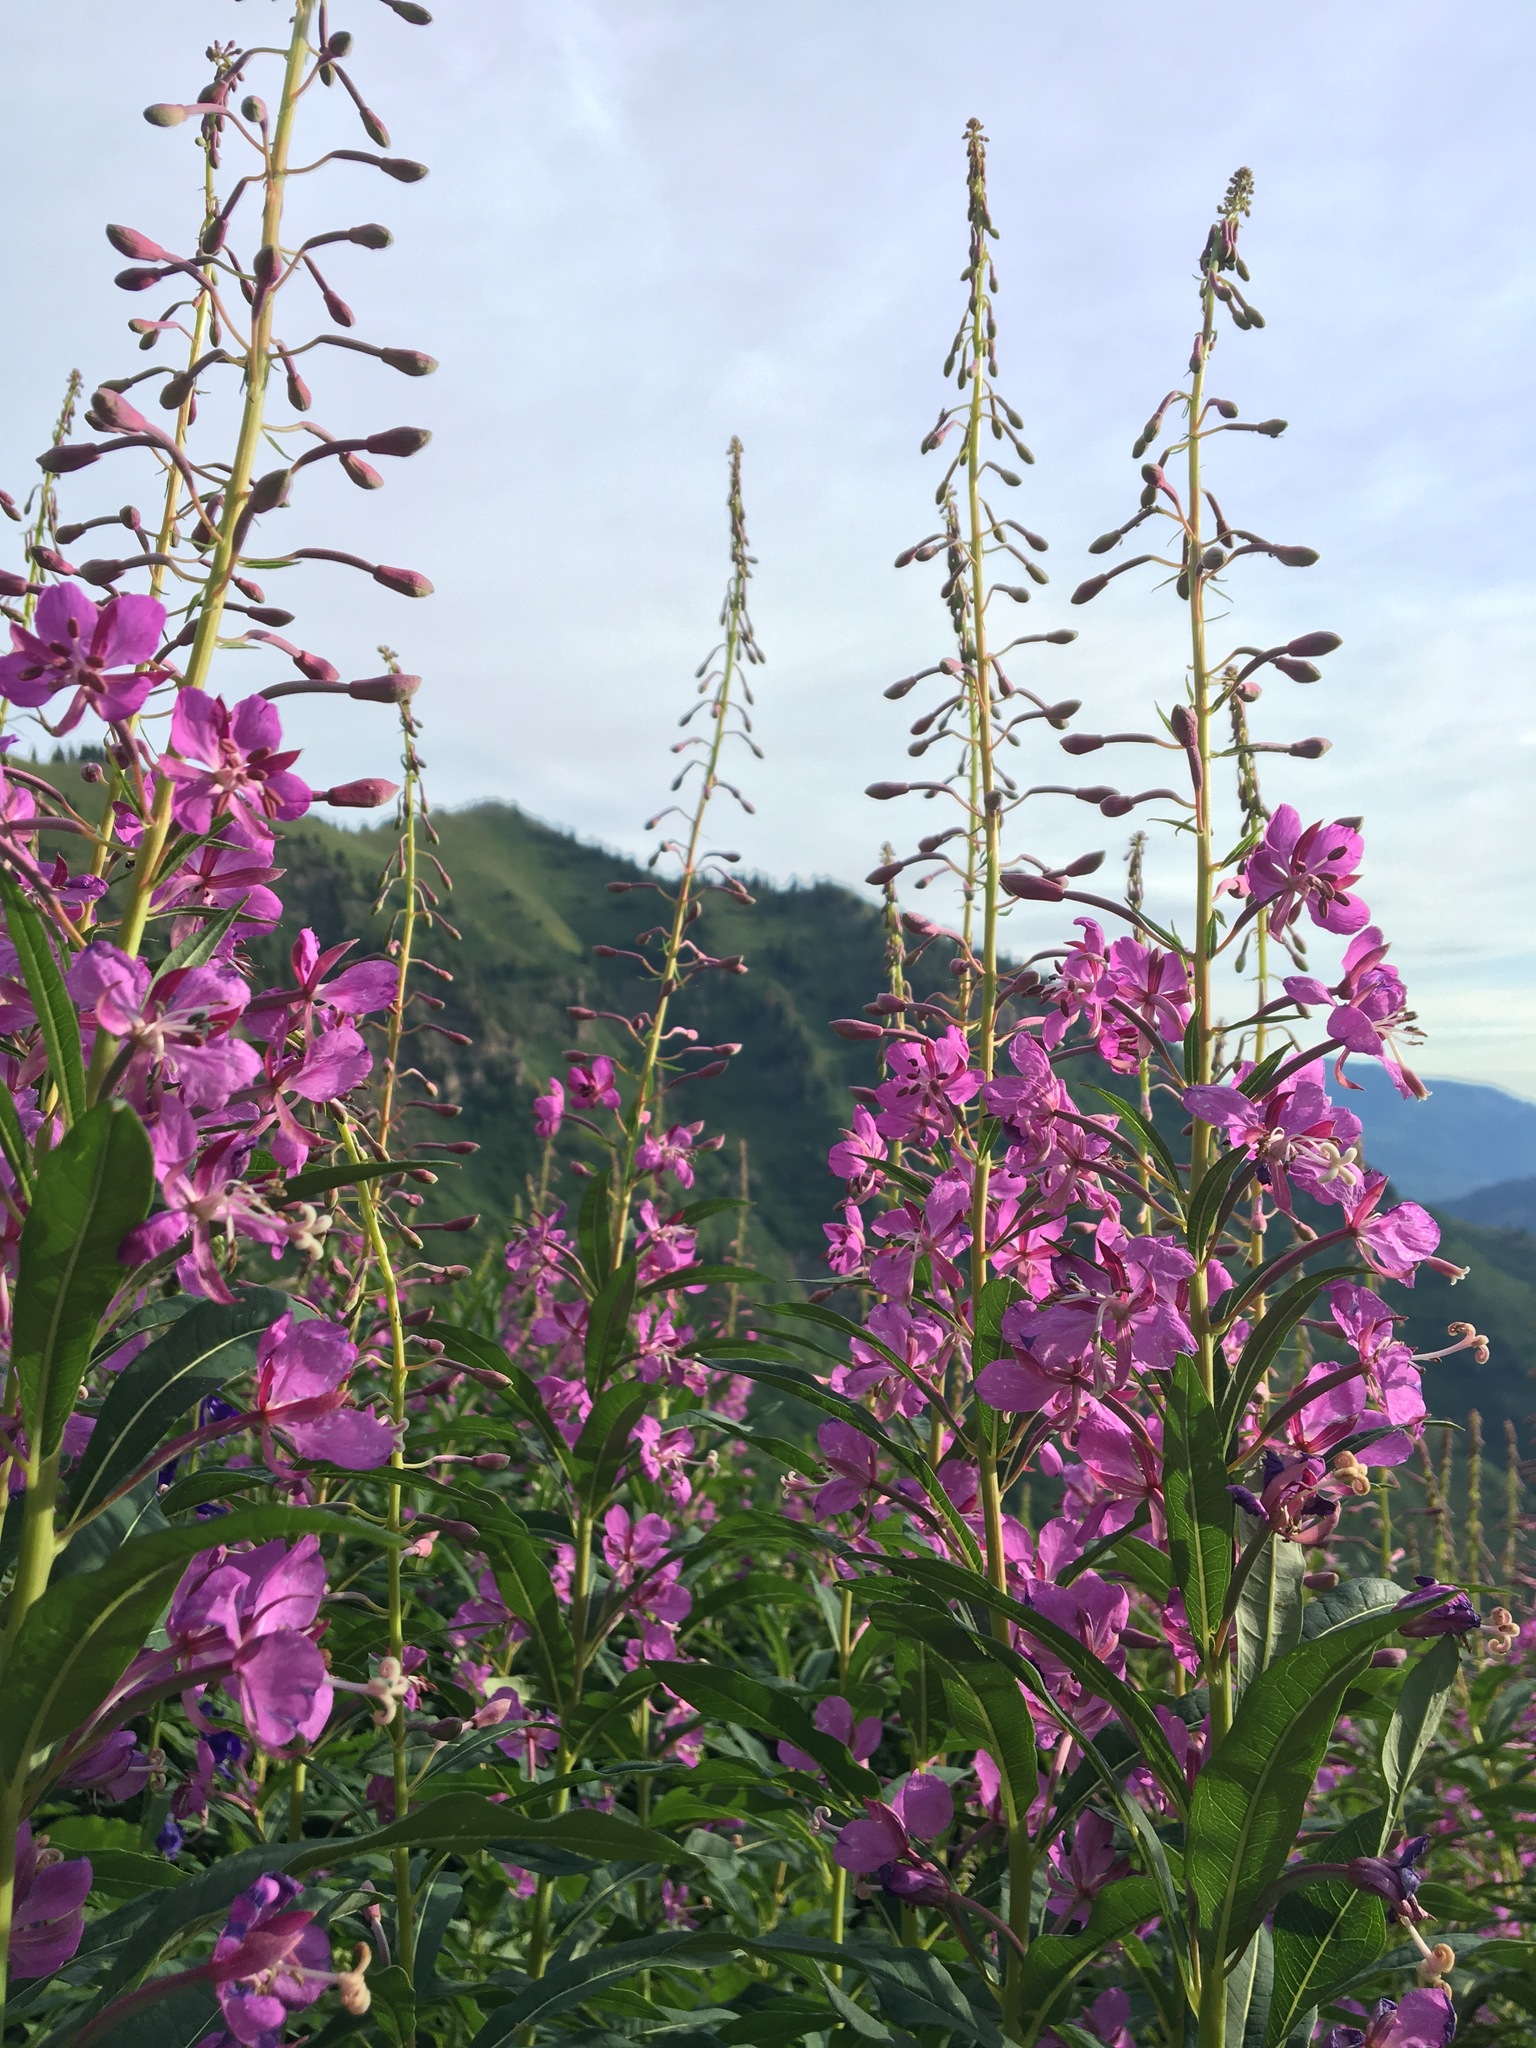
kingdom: Plantae
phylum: Tracheophyta
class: Magnoliopsida
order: Myrtales
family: Onagraceae
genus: Chamaenerion
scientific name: Chamaenerion angustifolium
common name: Fireweed
